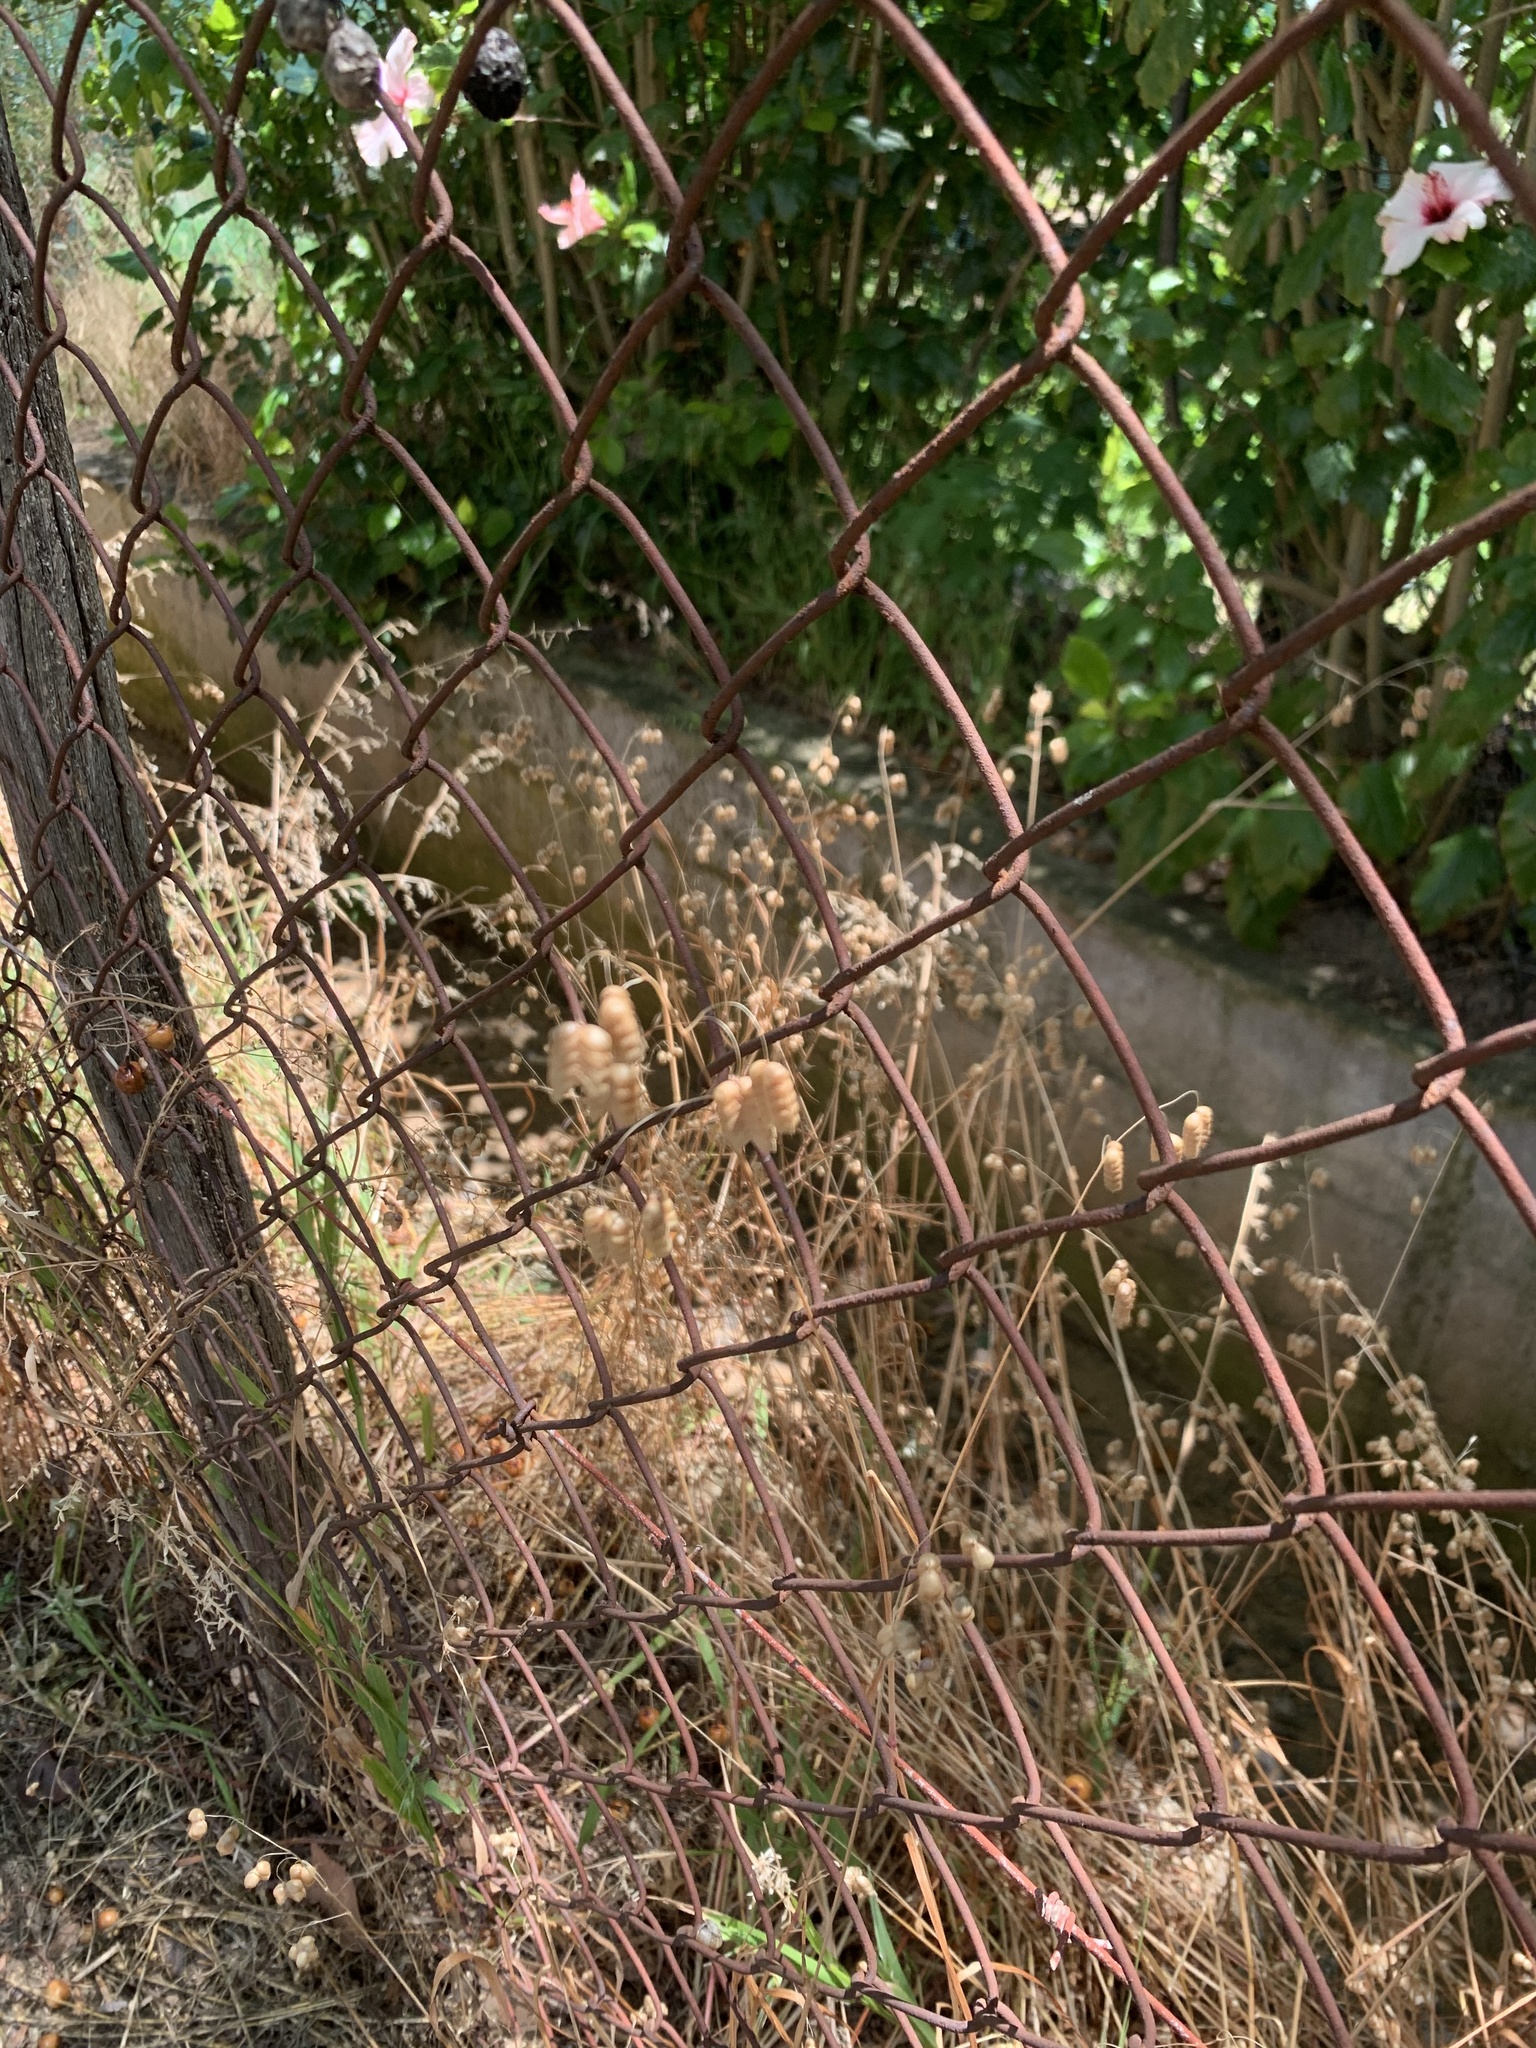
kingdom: Plantae
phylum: Tracheophyta
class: Liliopsida
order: Poales
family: Poaceae
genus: Briza
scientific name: Briza maxima
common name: Big quakinggrass
